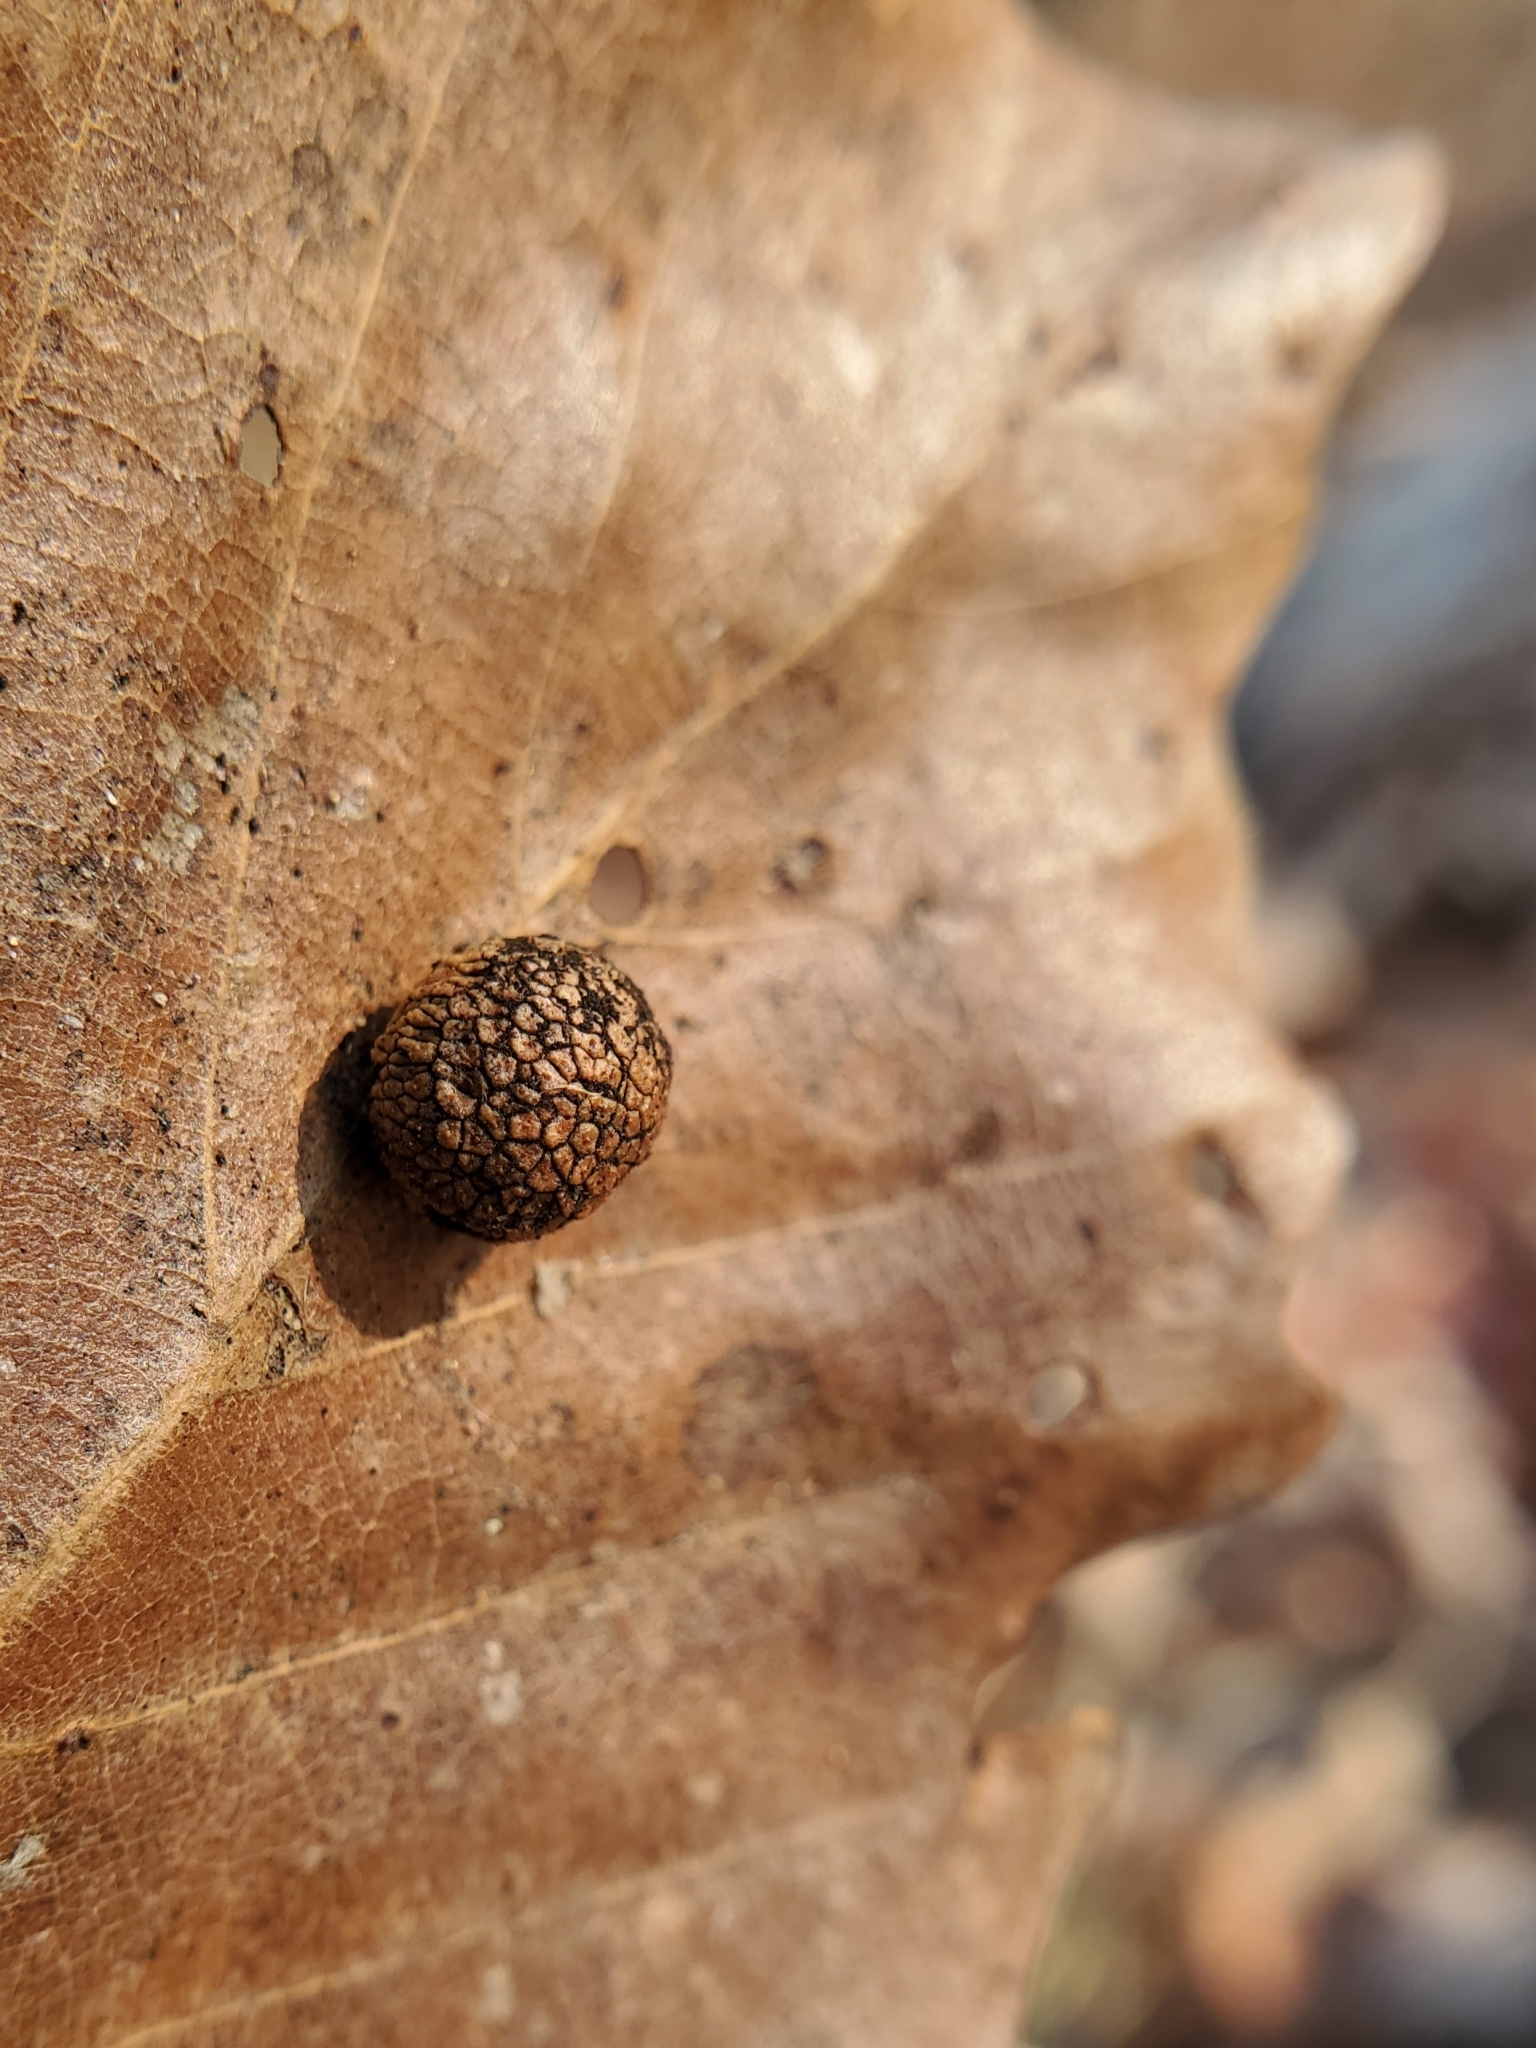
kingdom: Animalia
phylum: Arthropoda
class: Insecta
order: Hymenoptera
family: Cynipidae
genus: Acraspis
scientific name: Acraspis quercushirta
